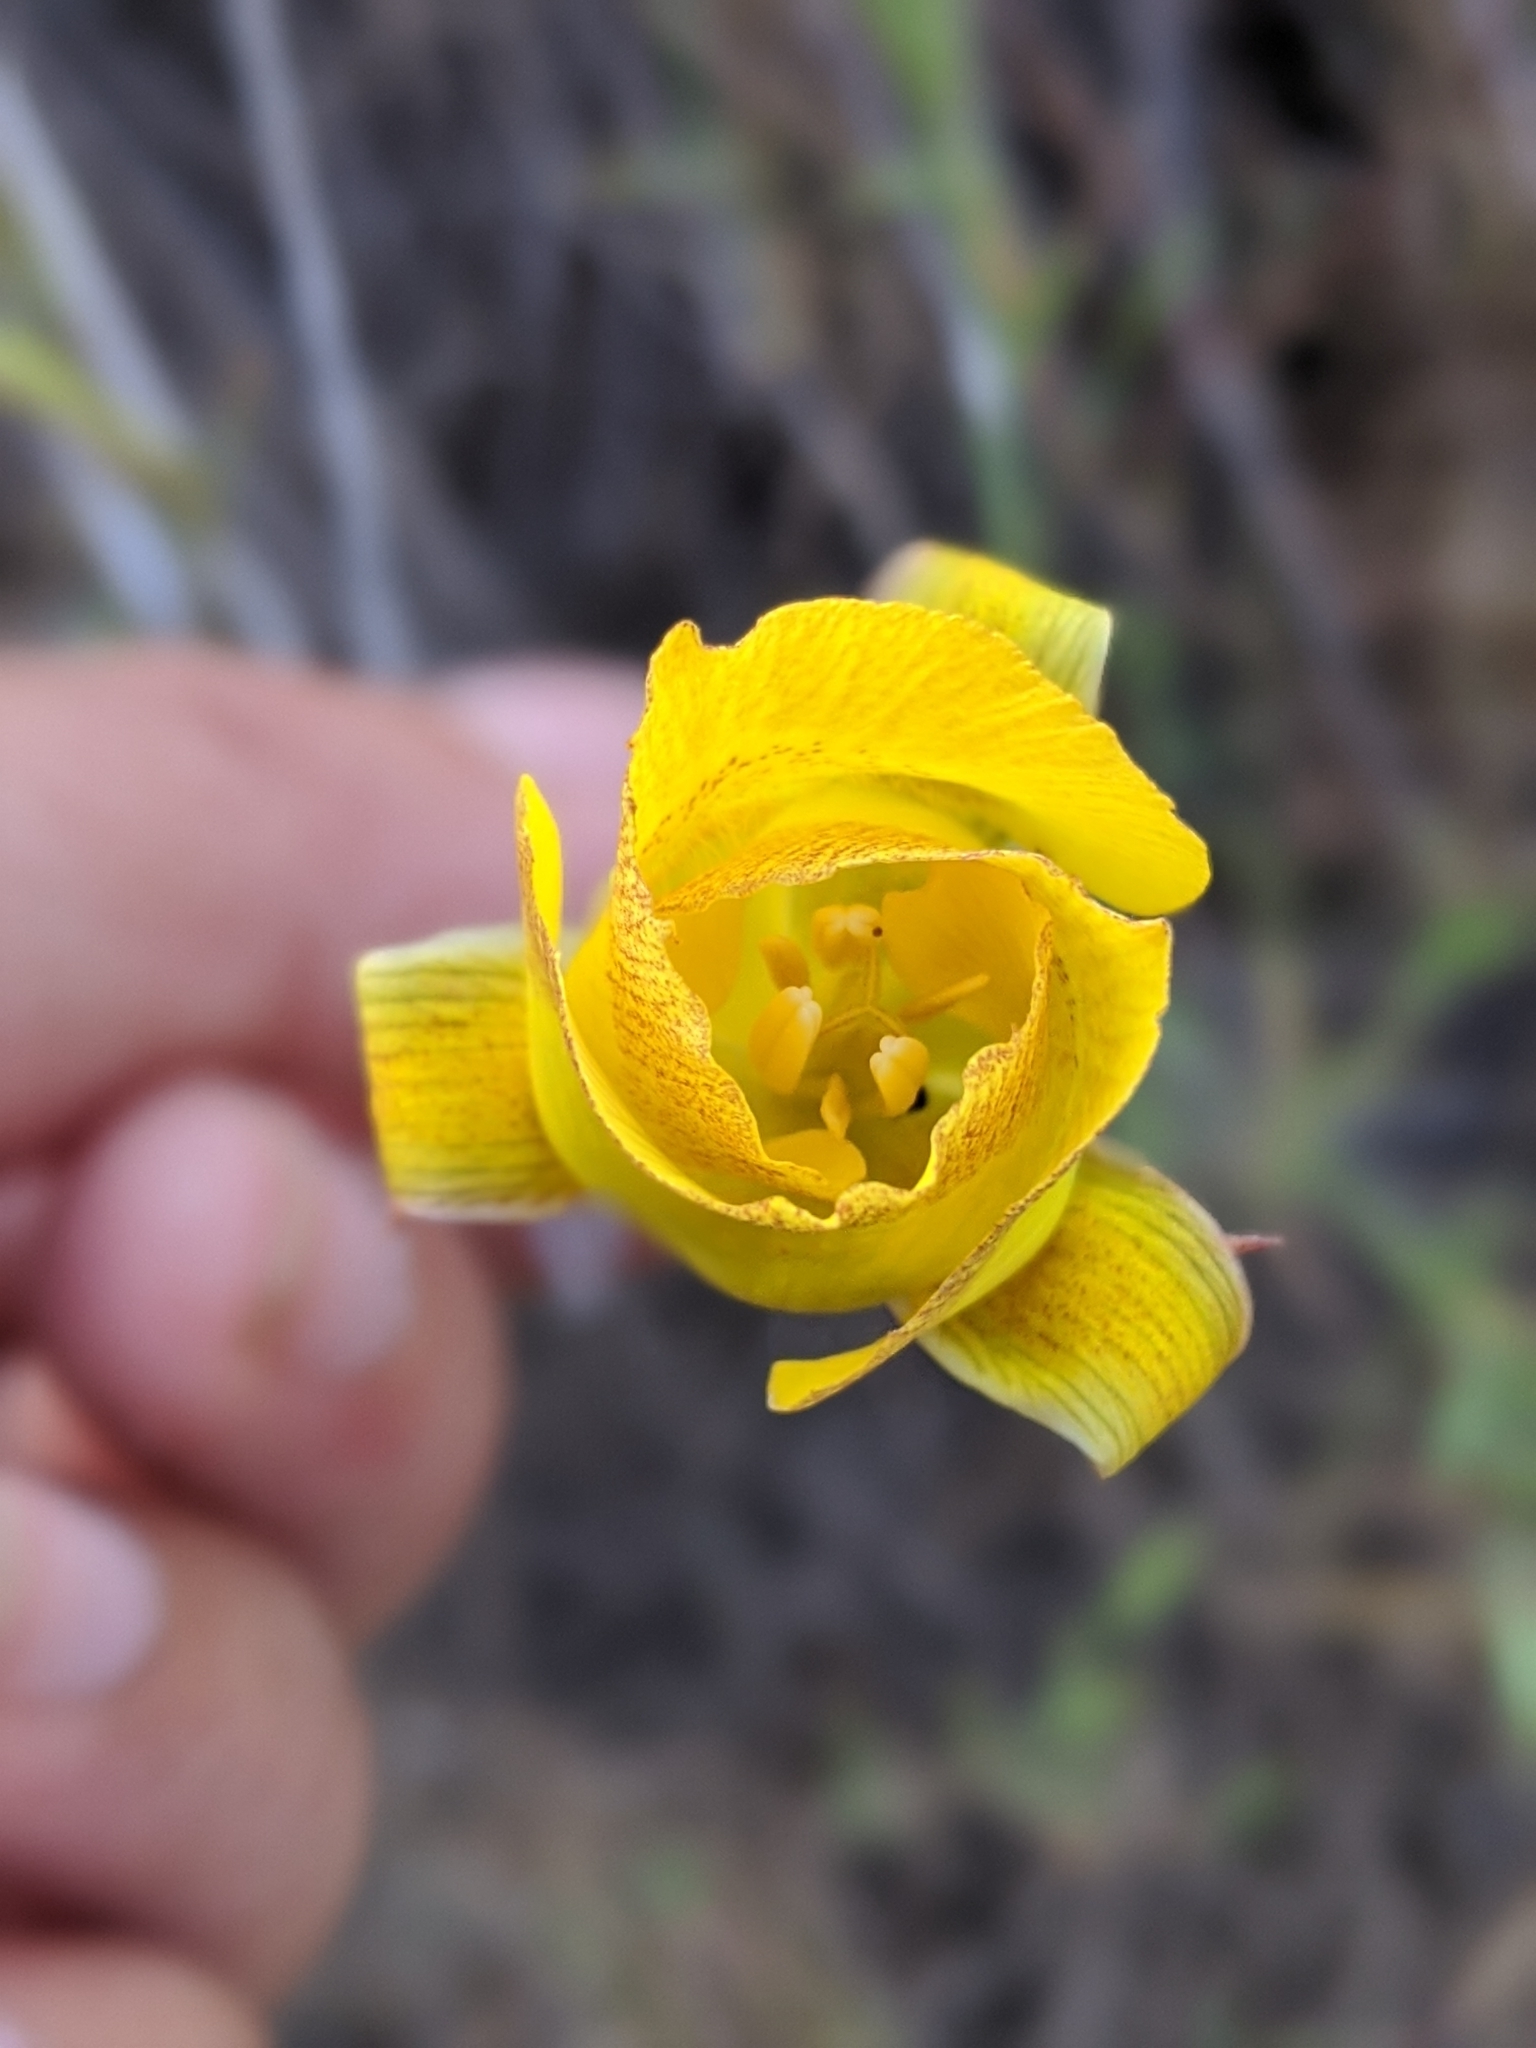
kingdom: Plantae
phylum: Tracheophyta
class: Liliopsida
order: Liliales
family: Liliaceae
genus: Calochortus
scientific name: Calochortus luteus
